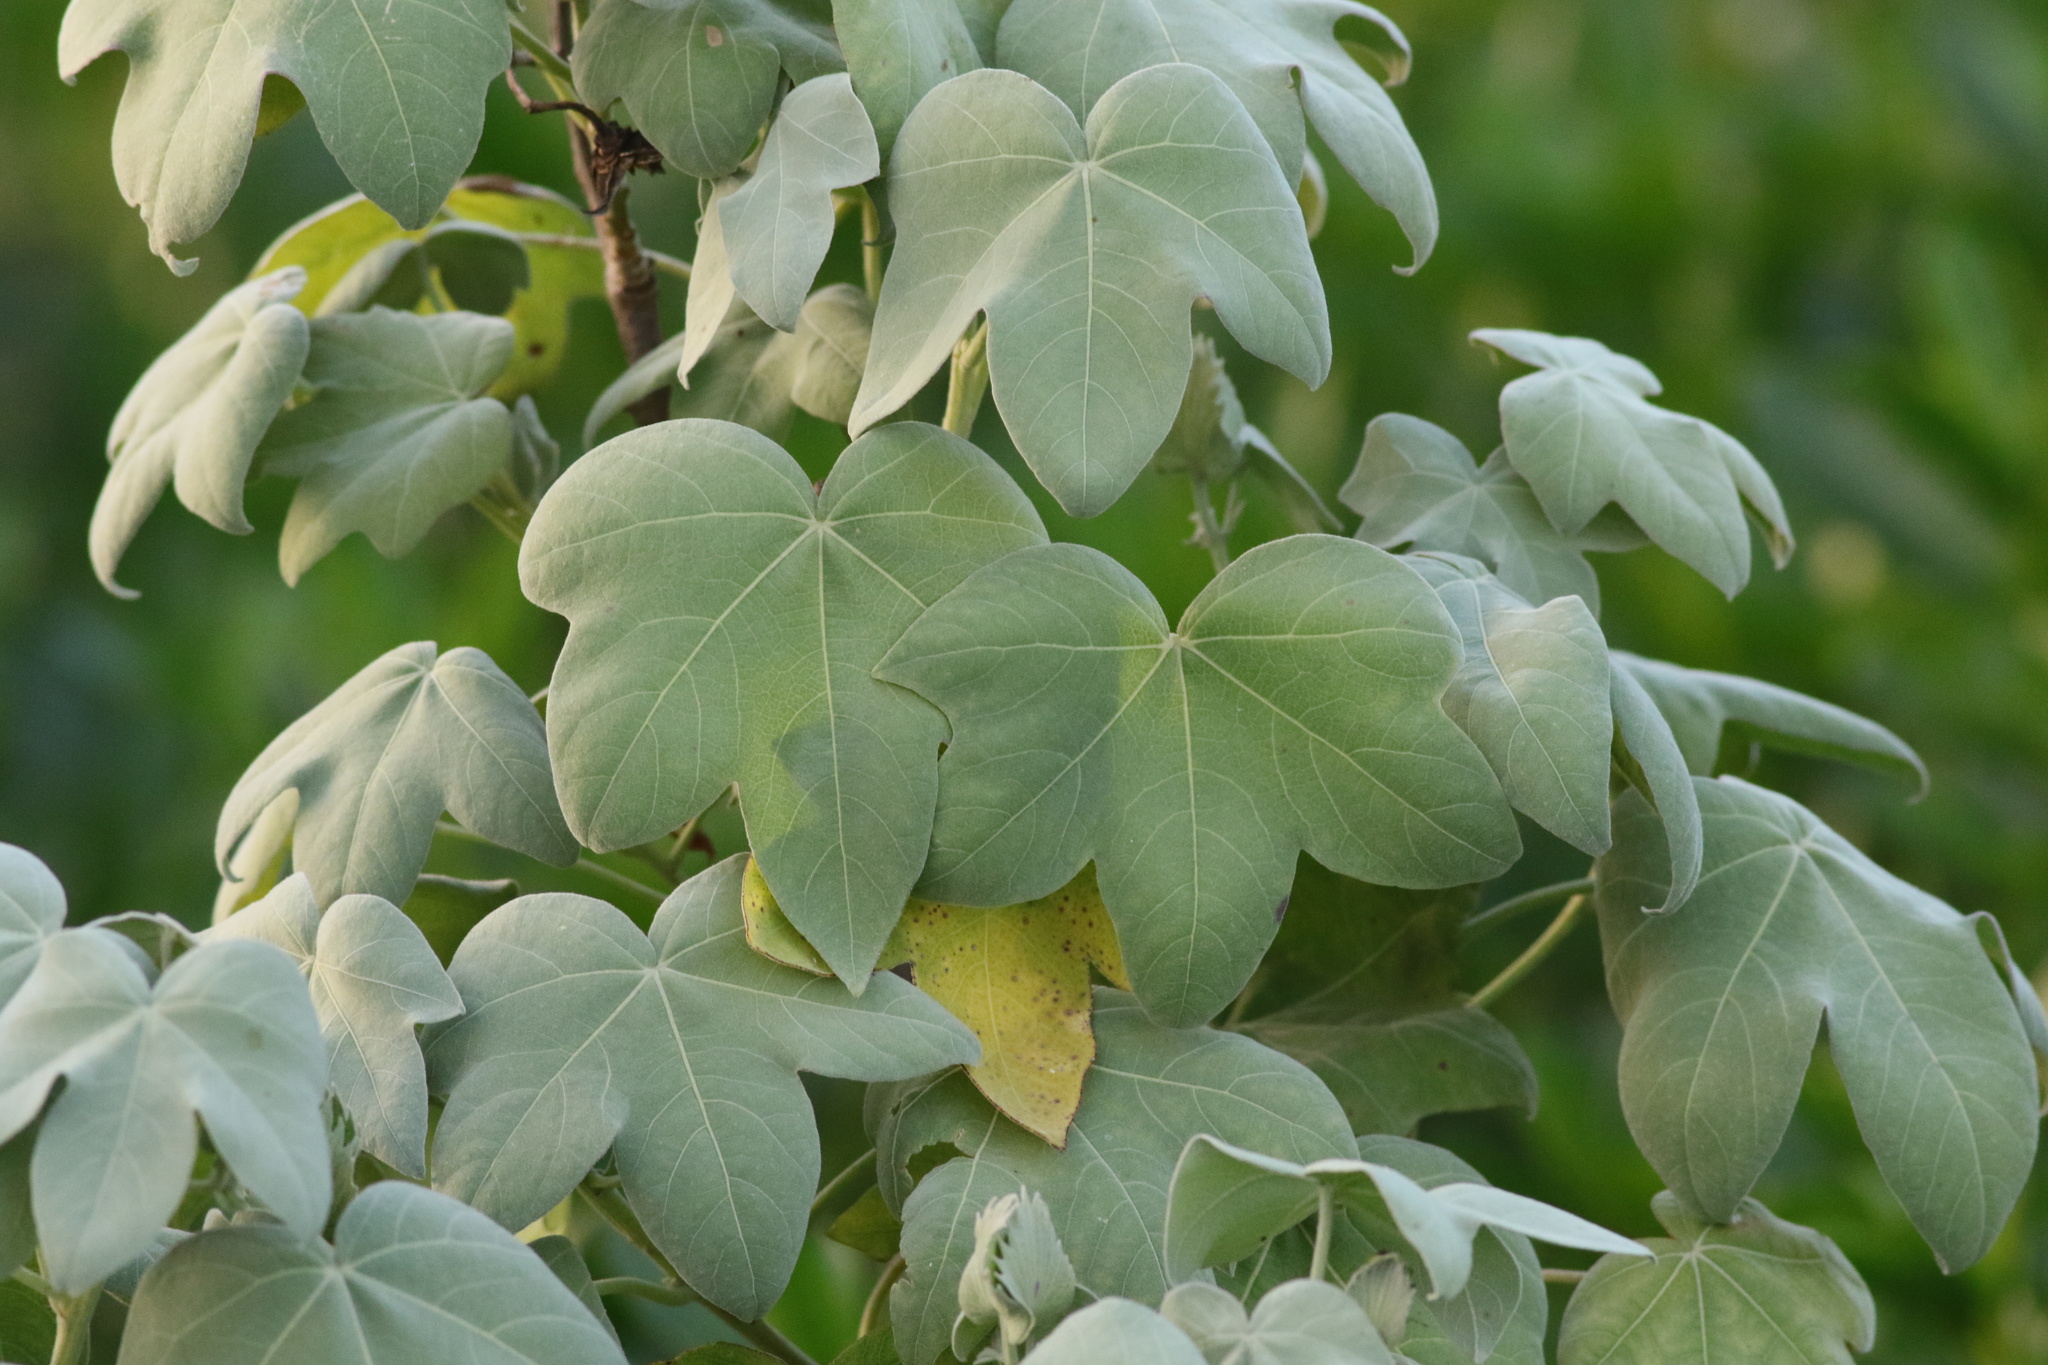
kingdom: Plantae
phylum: Tracheophyta
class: Magnoliopsida
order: Malvales
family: Malvaceae
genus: Gossypium
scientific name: Gossypium tomentosum
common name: Hawaiian cotton
